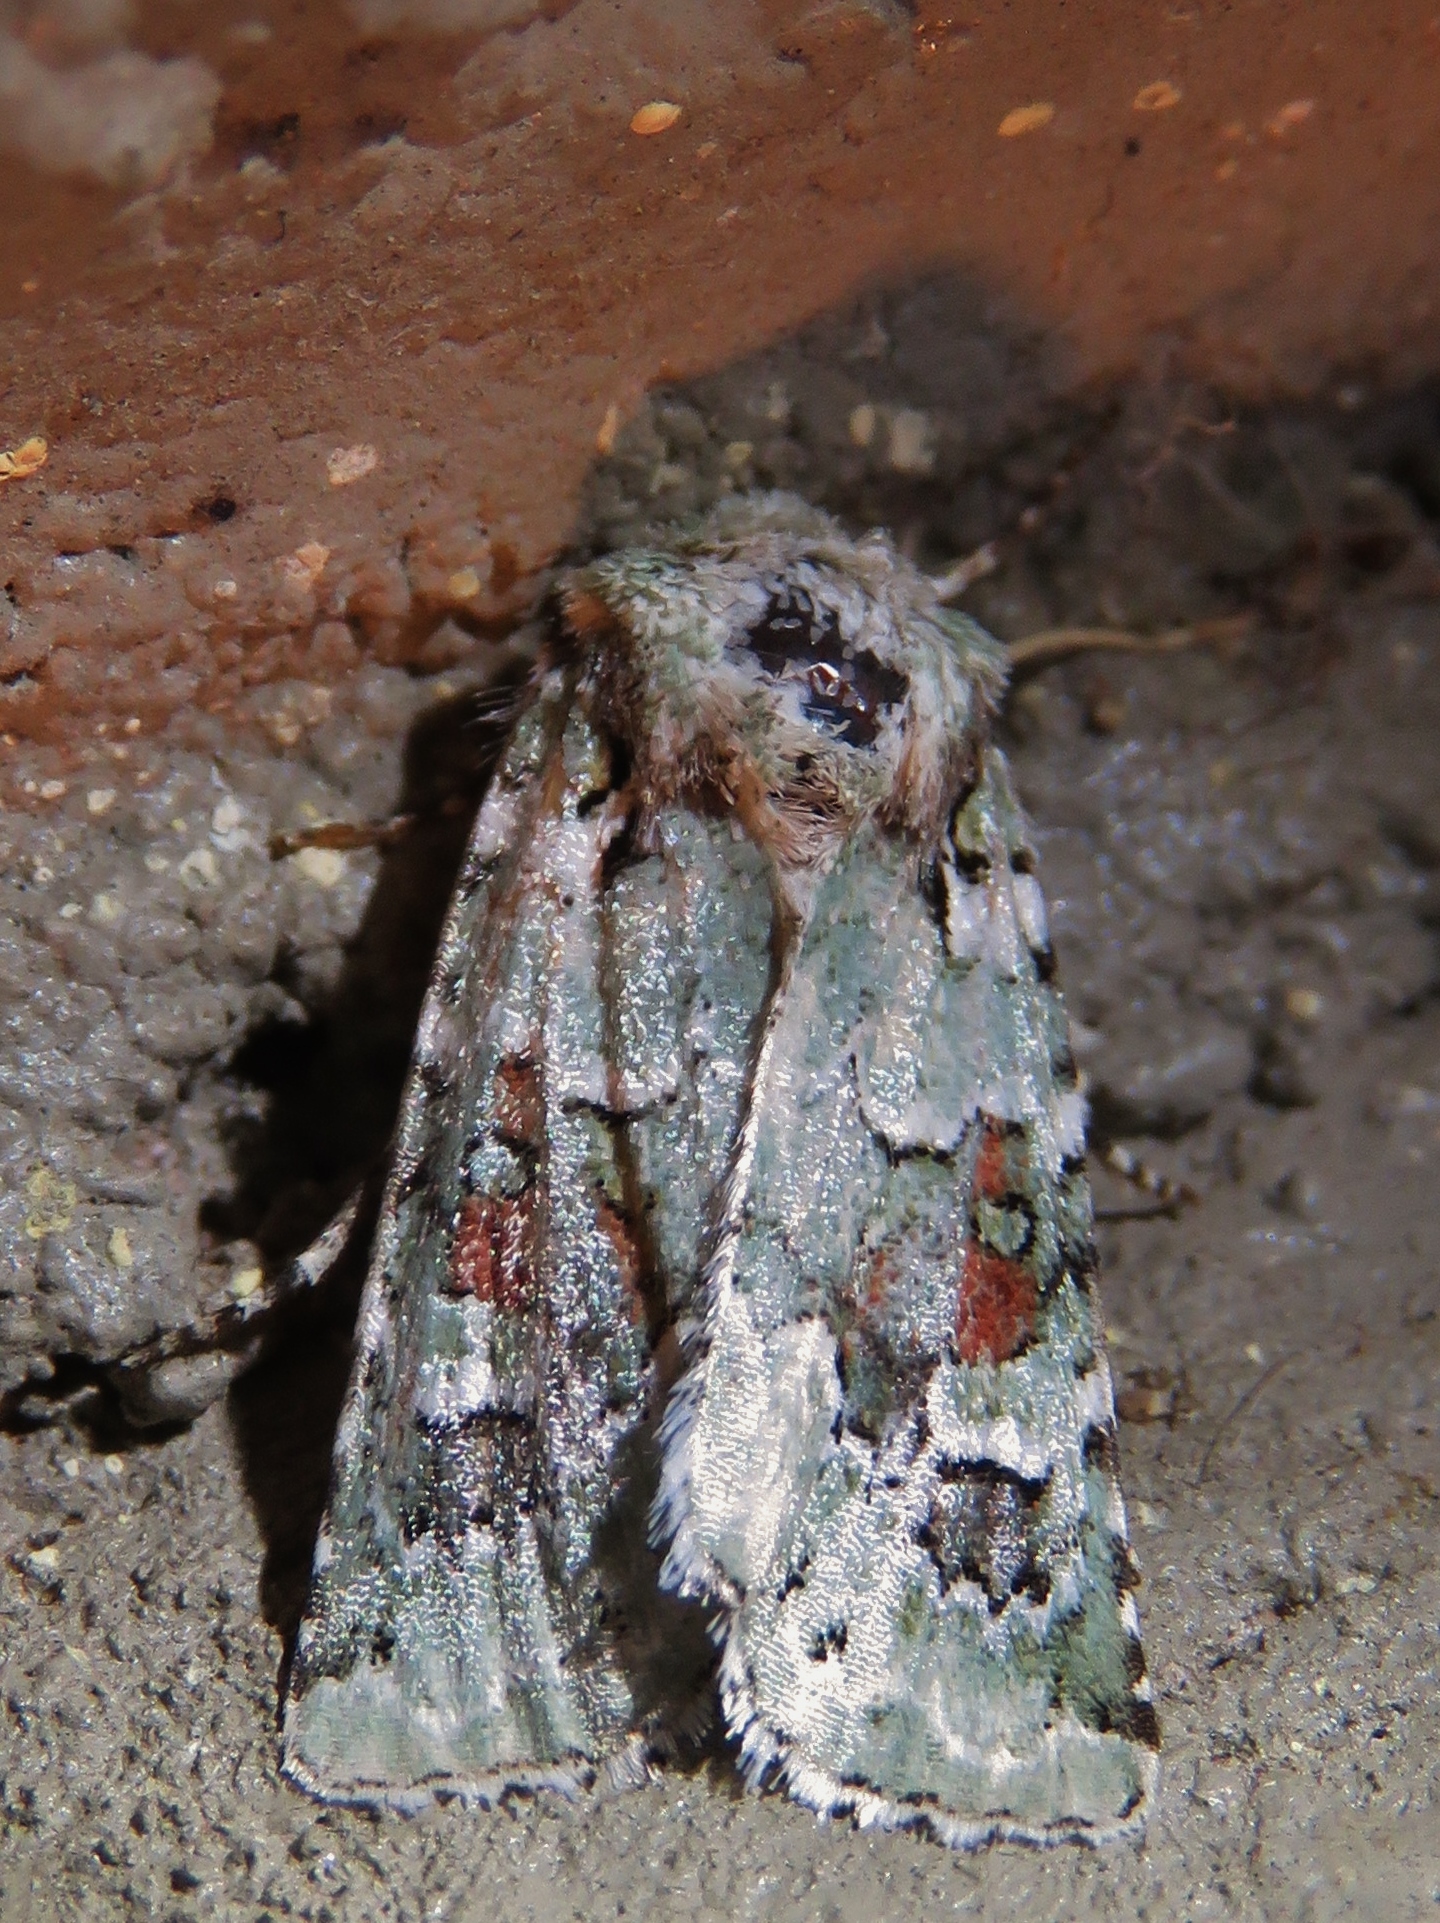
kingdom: Animalia
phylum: Arthropoda
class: Insecta
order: Lepidoptera
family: Noctuidae
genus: Lacinipolia
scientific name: Lacinipolia laudabilis
